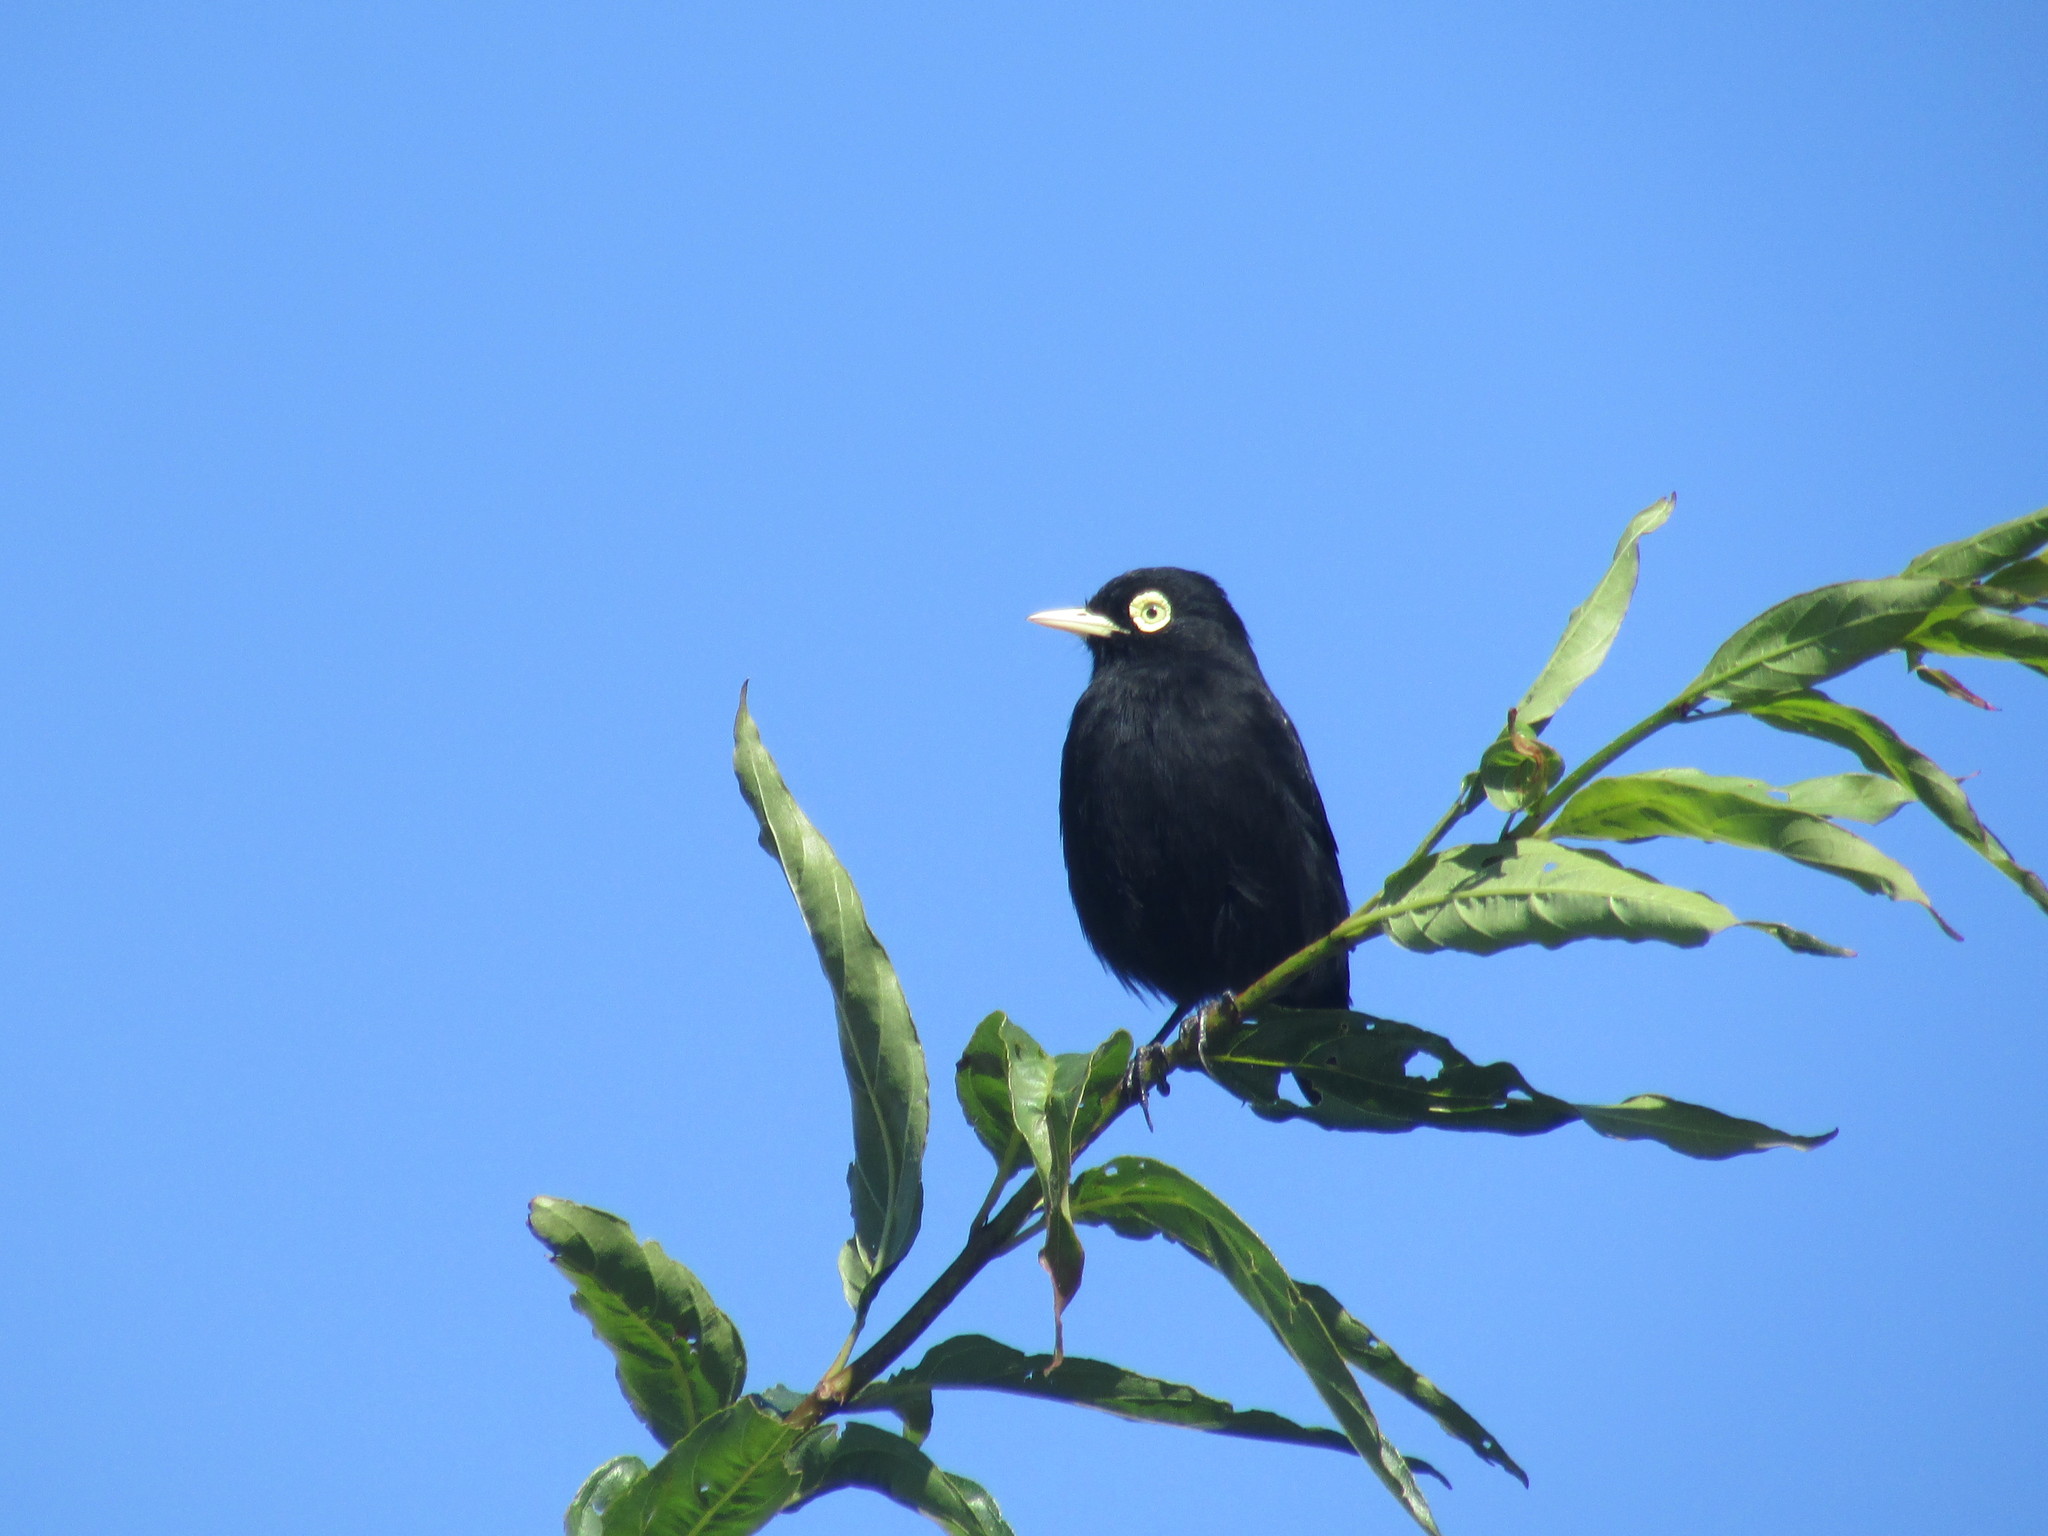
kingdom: Animalia
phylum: Chordata
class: Aves
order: Passeriformes
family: Tyrannidae
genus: Hymenops
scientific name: Hymenops perspicillatus
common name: Spectacled tyrant
